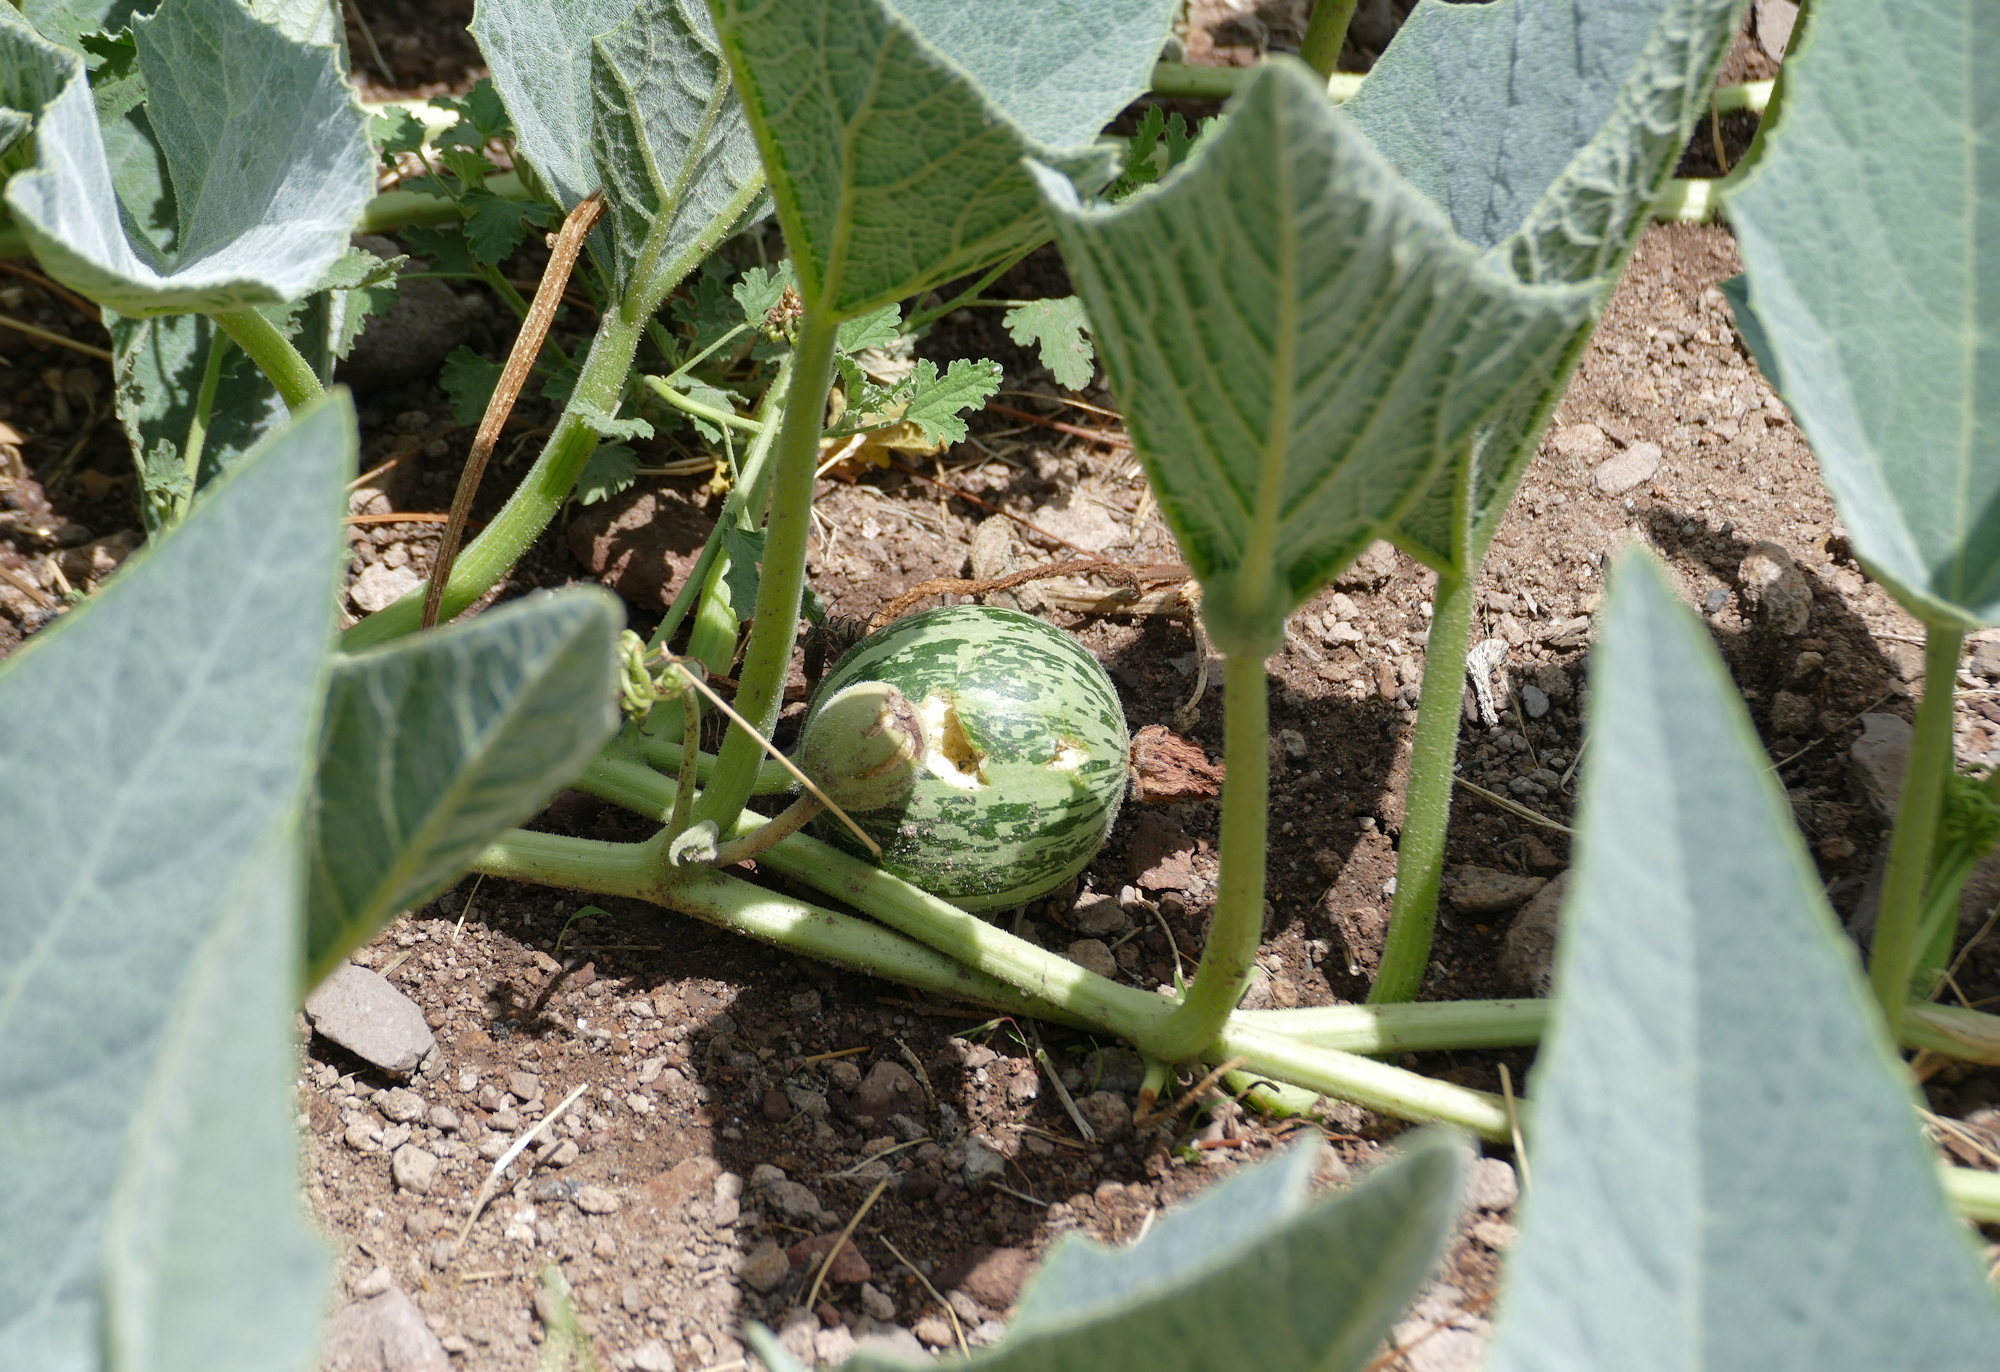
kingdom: Plantae
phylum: Tracheophyta
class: Magnoliopsida
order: Cucurbitales
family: Cucurbitaceae
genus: Cucurbita
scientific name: Cucurbita foetidissima
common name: Buffalo gourd
